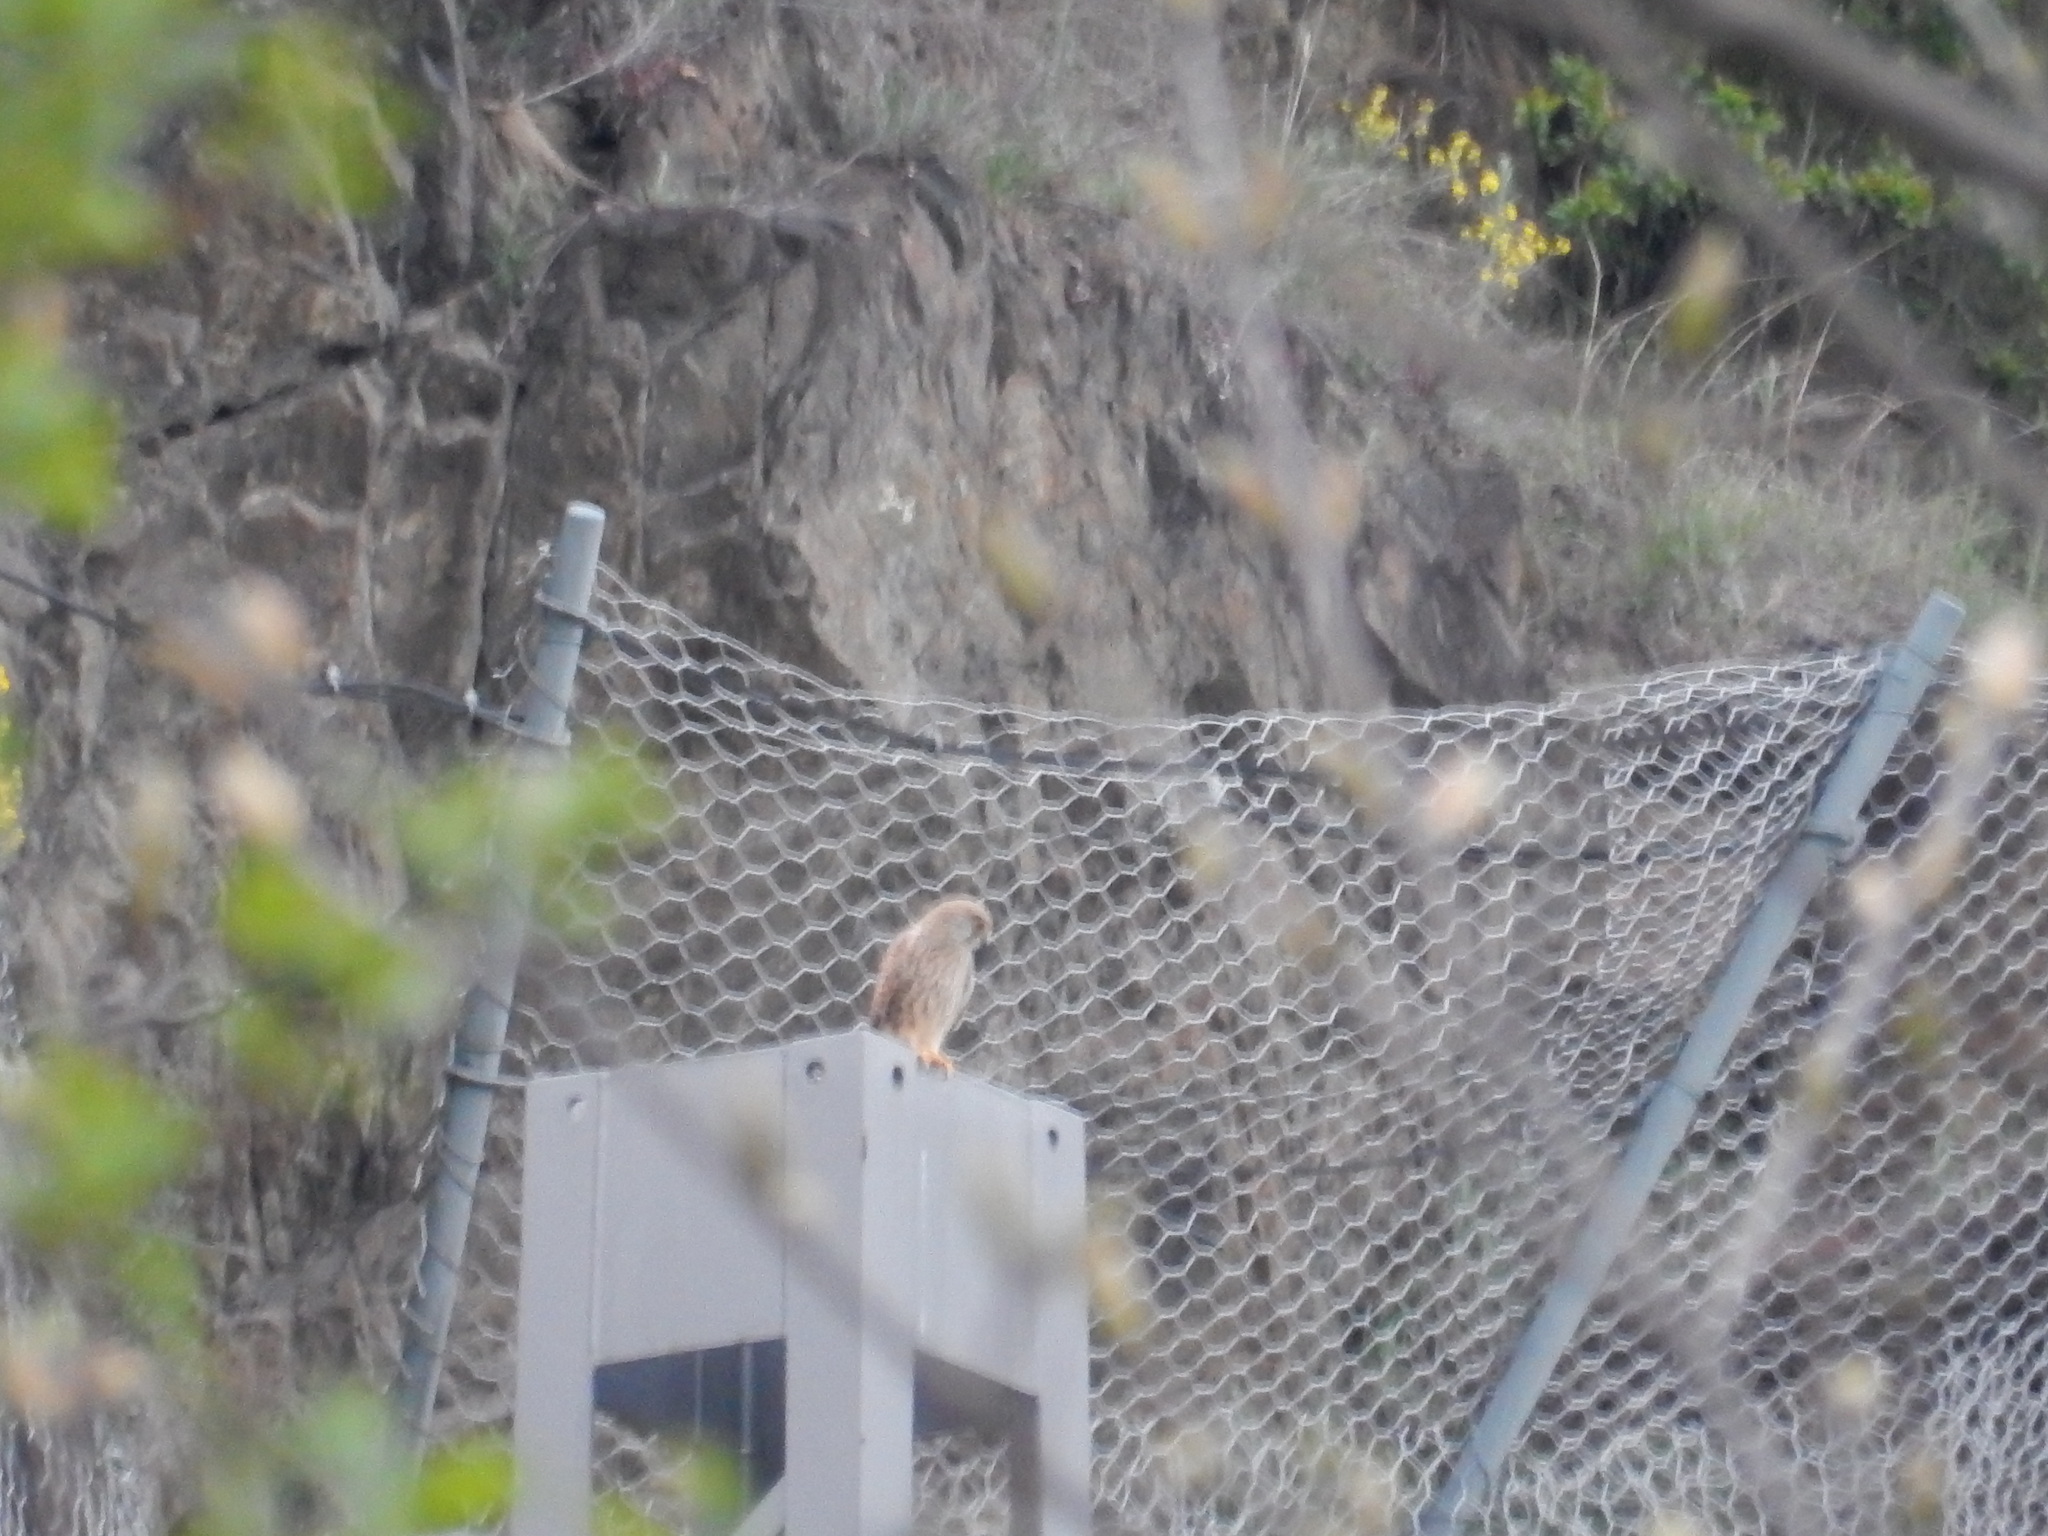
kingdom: Animalia
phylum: Chordata
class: Aves
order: Falconiformes
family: Falconidae
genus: Falco
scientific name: Falco tinnunculus
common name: Common kestrel
